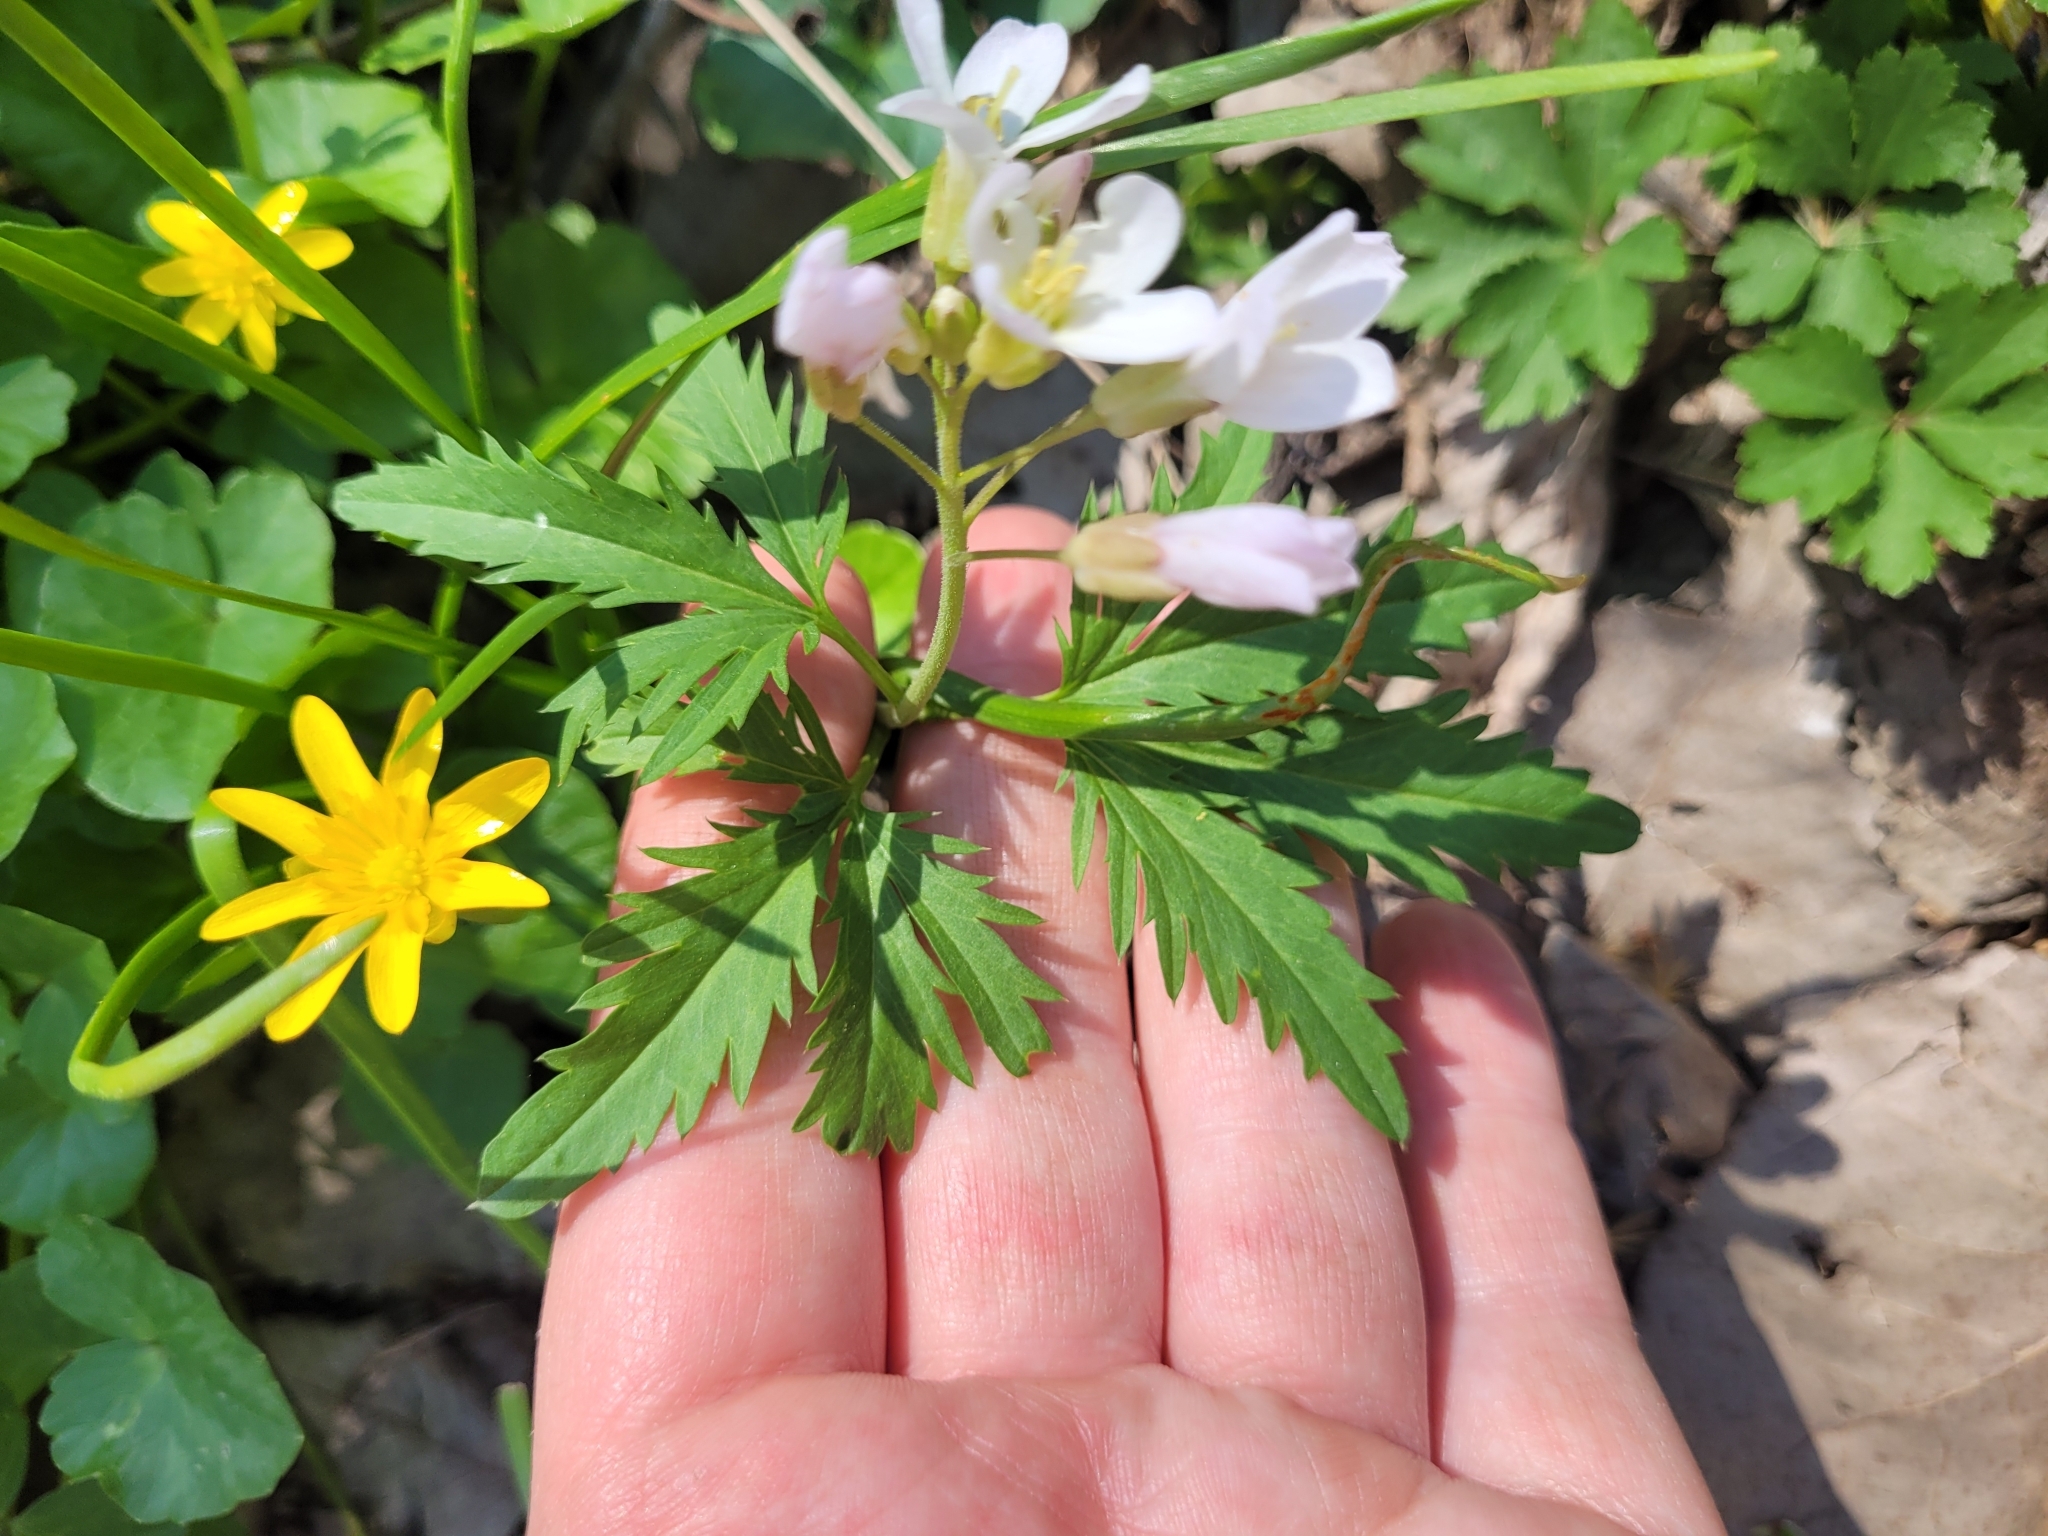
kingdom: Plantae
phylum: Tracheophyta
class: Magnoliopsida
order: Brassicales
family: Brassicaceae
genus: Cardamine
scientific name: Cardamine concatenata
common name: Cut-leaf toothcup
